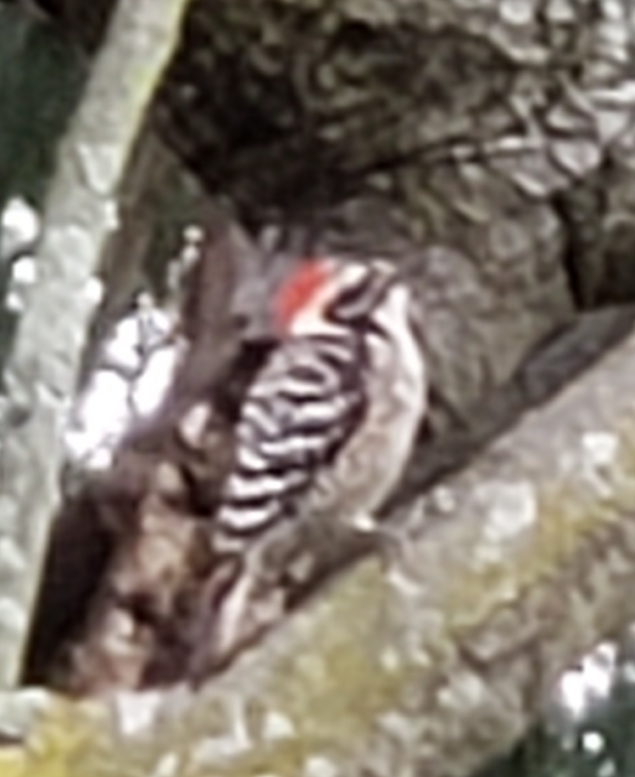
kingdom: Animalia
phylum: Chordata
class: Aves
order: Piciformes
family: Picidae
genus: Dryobates
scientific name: Dryobates nuttallii
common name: Nuttall's woodpecker
